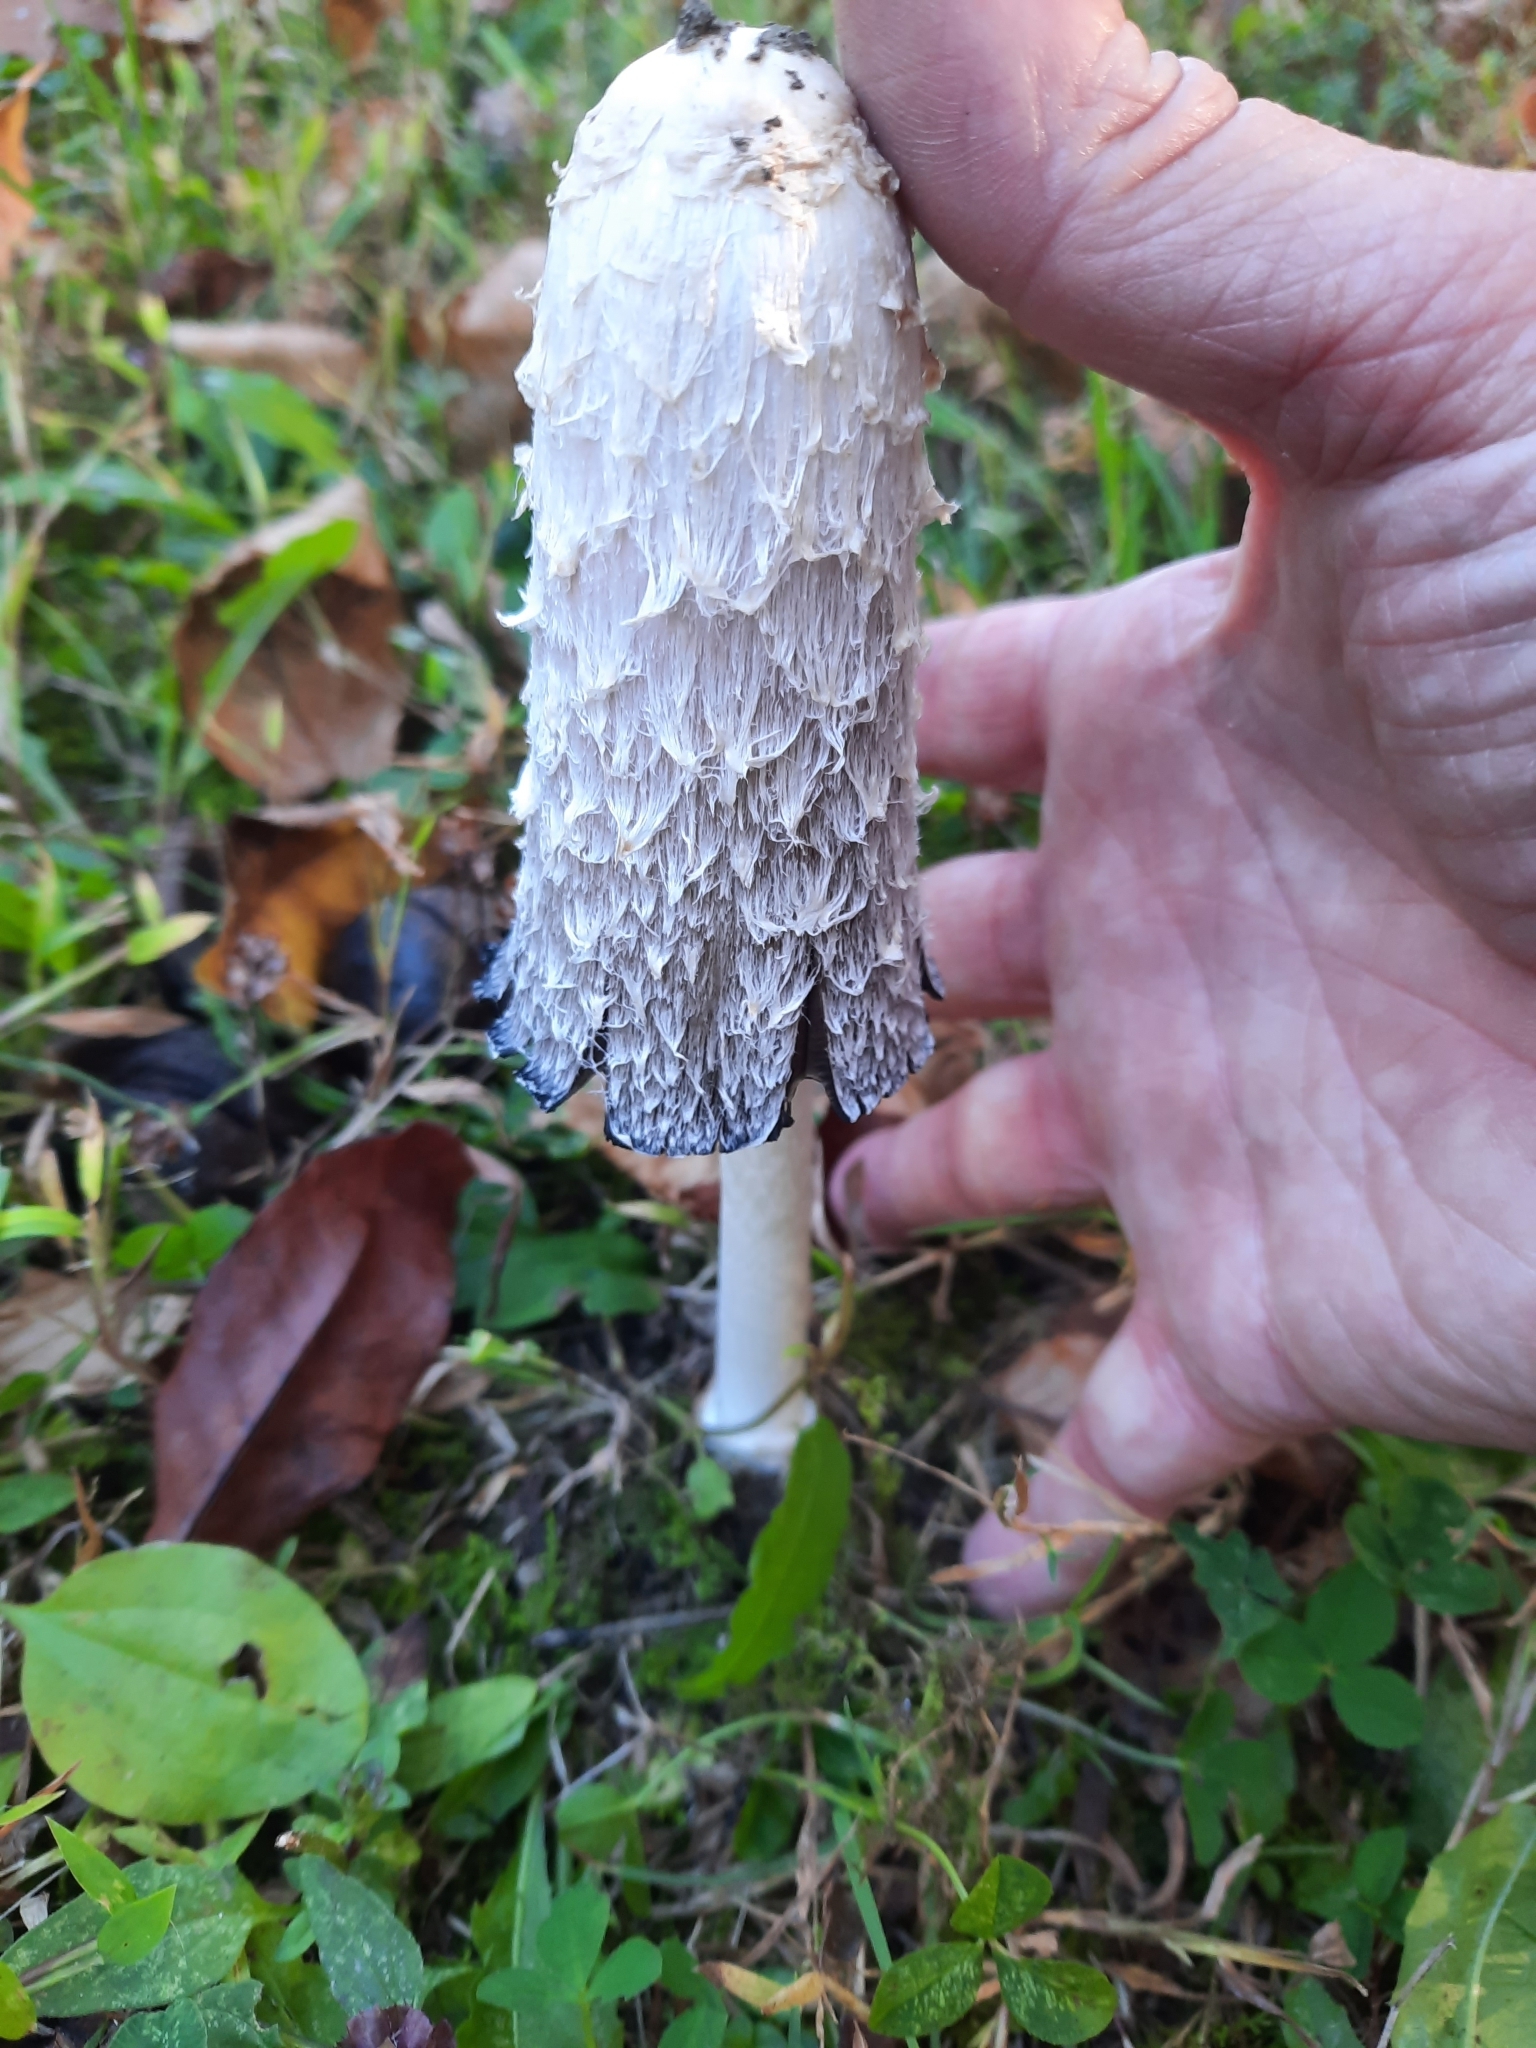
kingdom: Fungi
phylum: Basidiomycota
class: Agaricomycetes
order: Agaricales
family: Agaricaceae
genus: Coprinus
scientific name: Coprinus comatus
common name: Lawyer's wig
